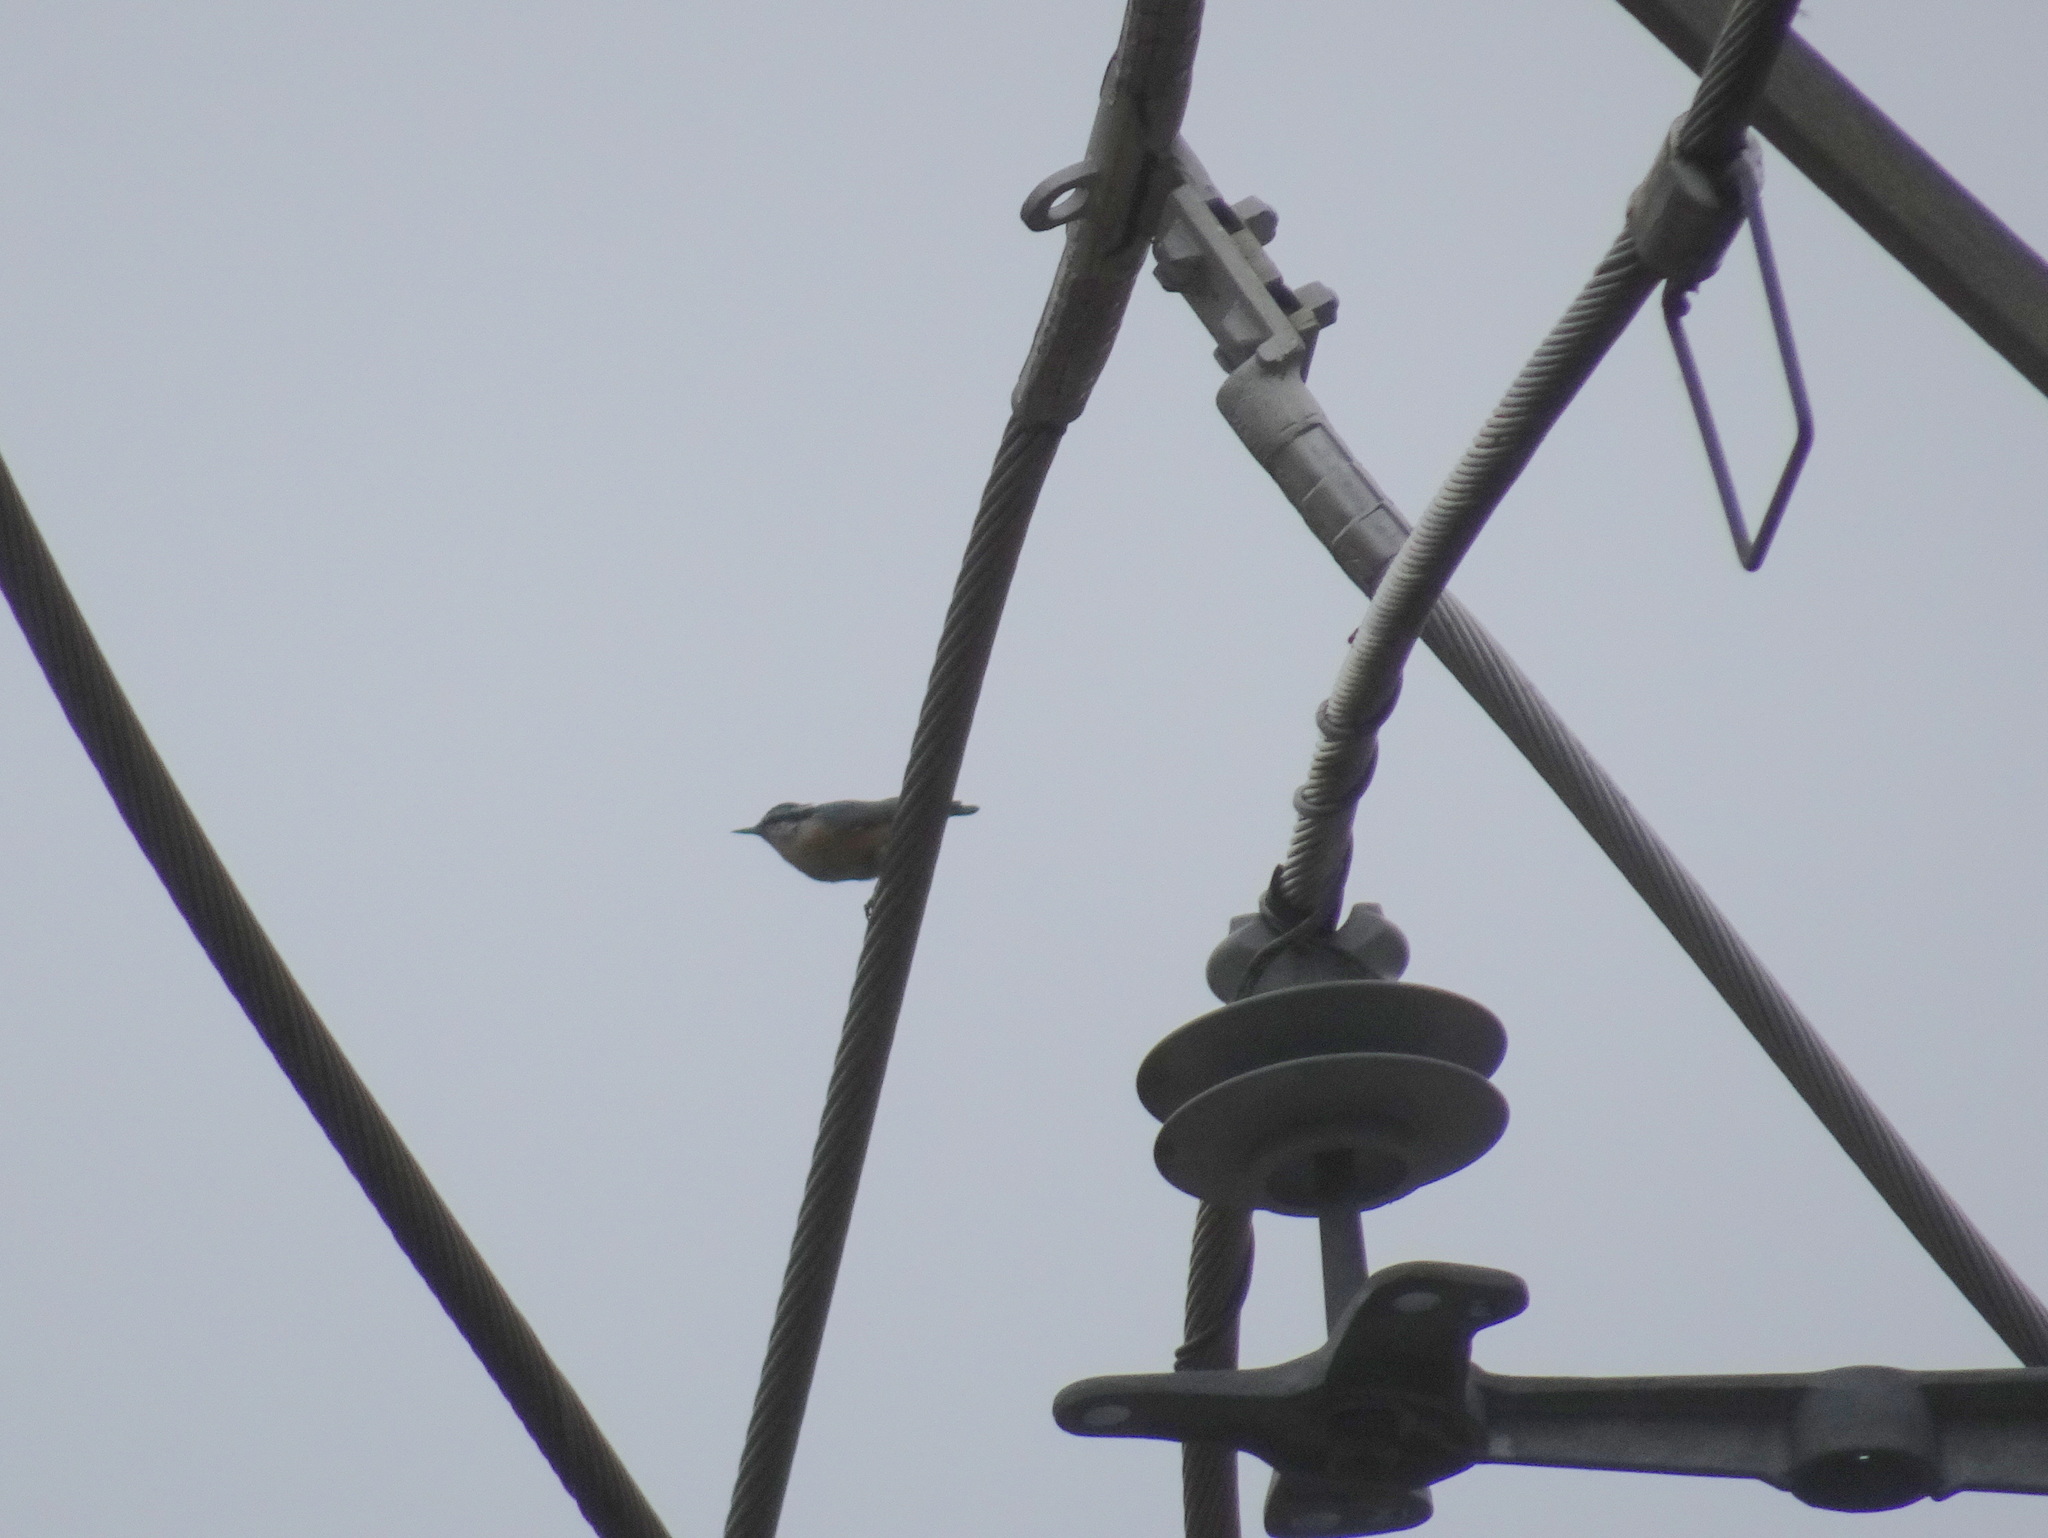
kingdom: Animalia
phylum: Chordata
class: Aves
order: Passeriformes
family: Sittidae
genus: Sitta
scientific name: Sitta canadensis
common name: Red-breasted nuthatch
